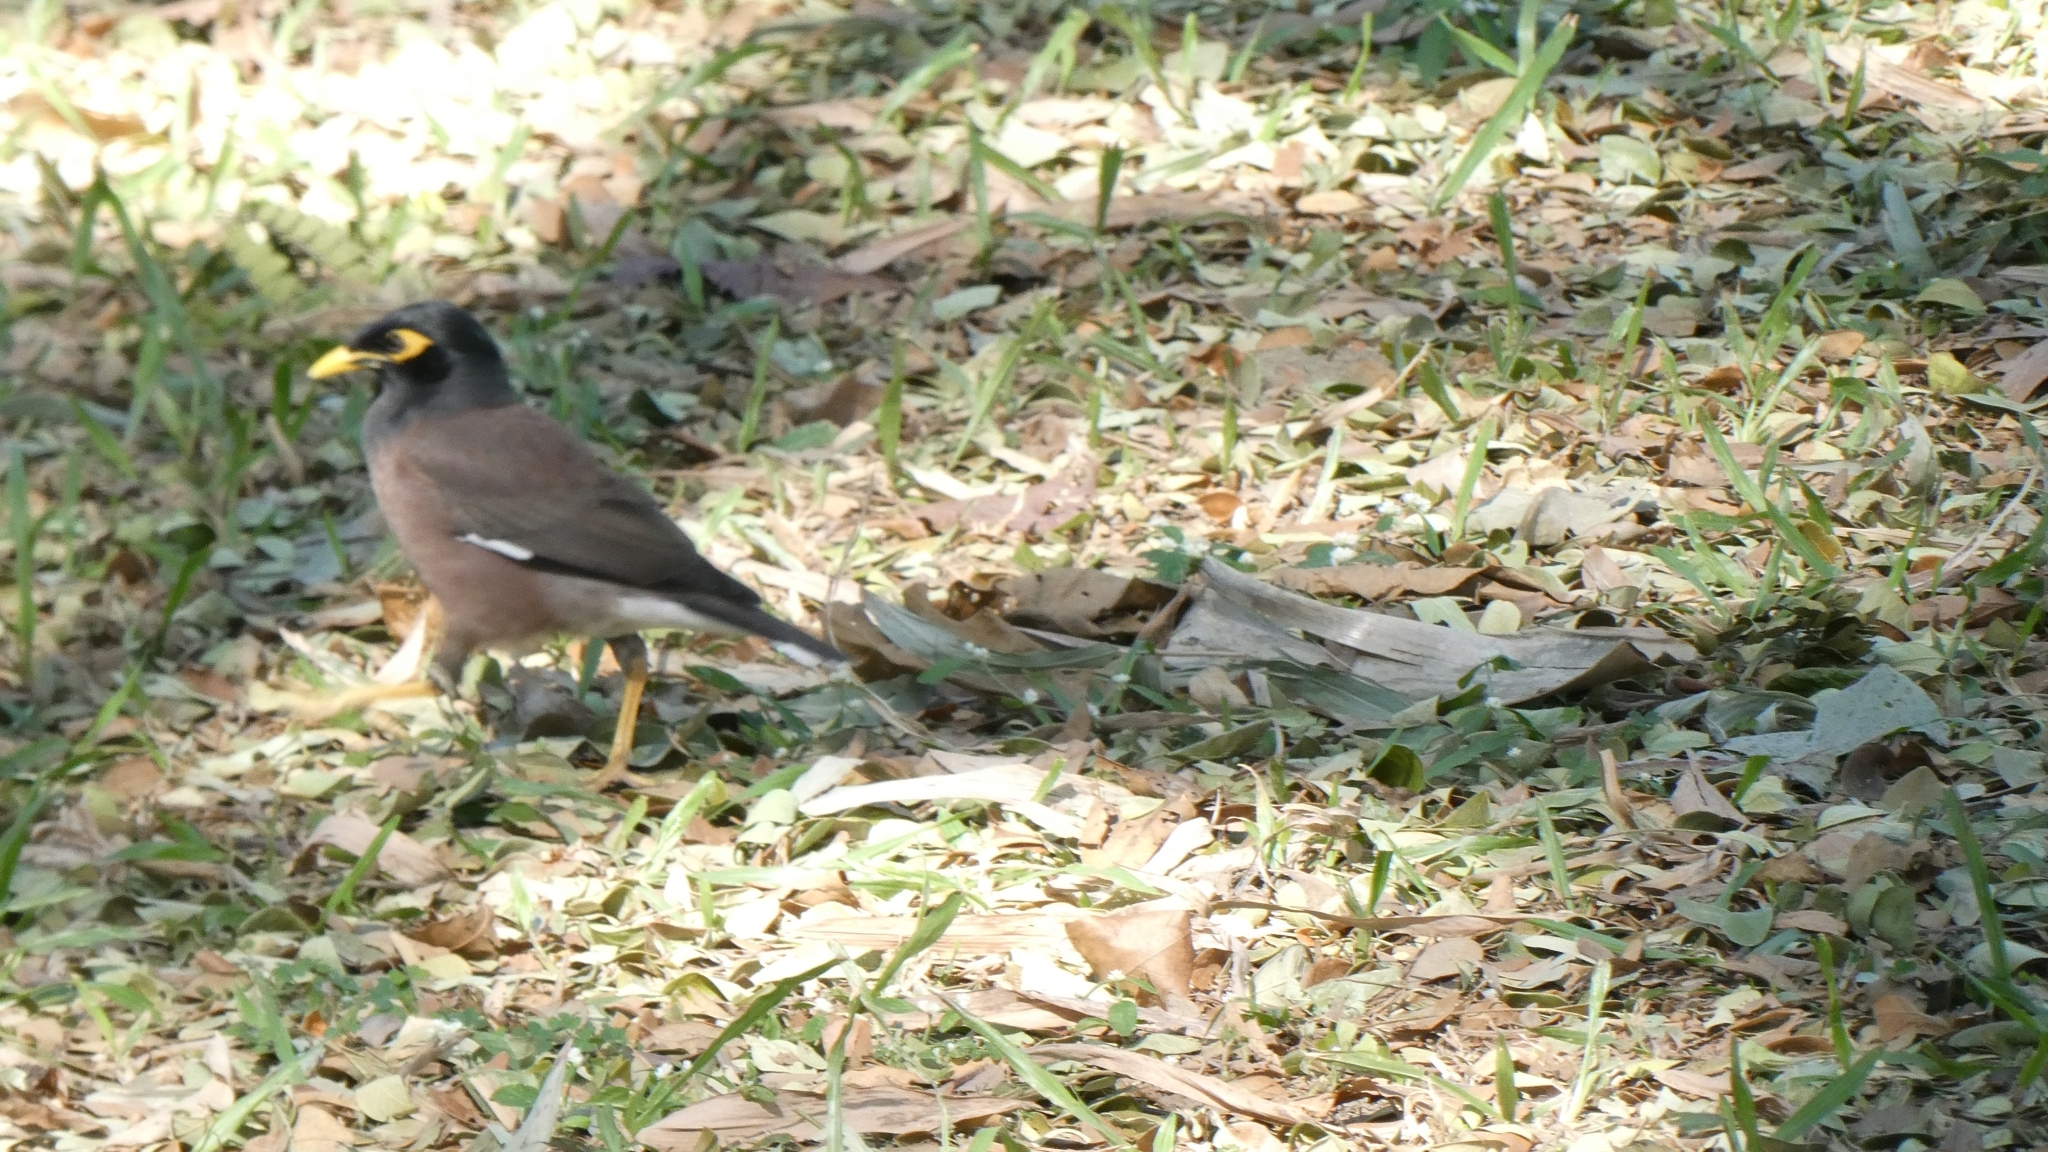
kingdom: Animalia
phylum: Chordata
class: Aves
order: Passeriformes
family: Sturnidae
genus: Acridotheres
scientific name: Acridotheres tristis
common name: Common myna
